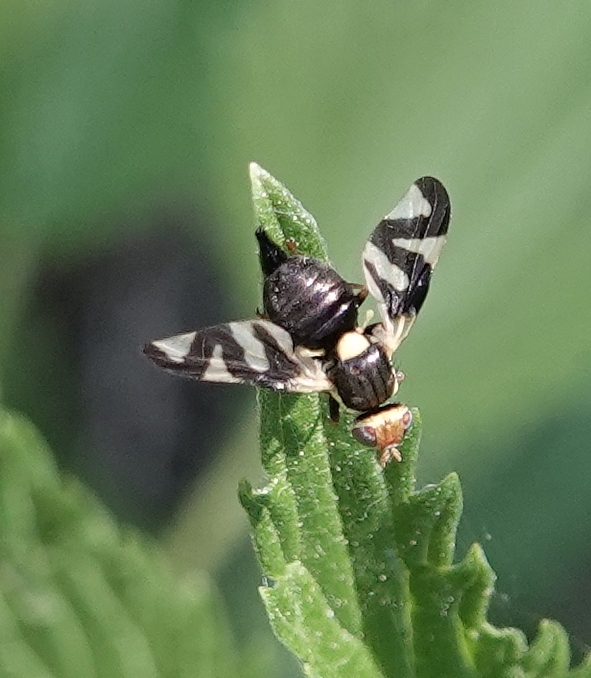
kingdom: Animalia
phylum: Arthropoda
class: Insecta
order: Diptera
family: Tephritidae
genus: Urophora
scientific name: Urophora cardui
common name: Fruit fly
